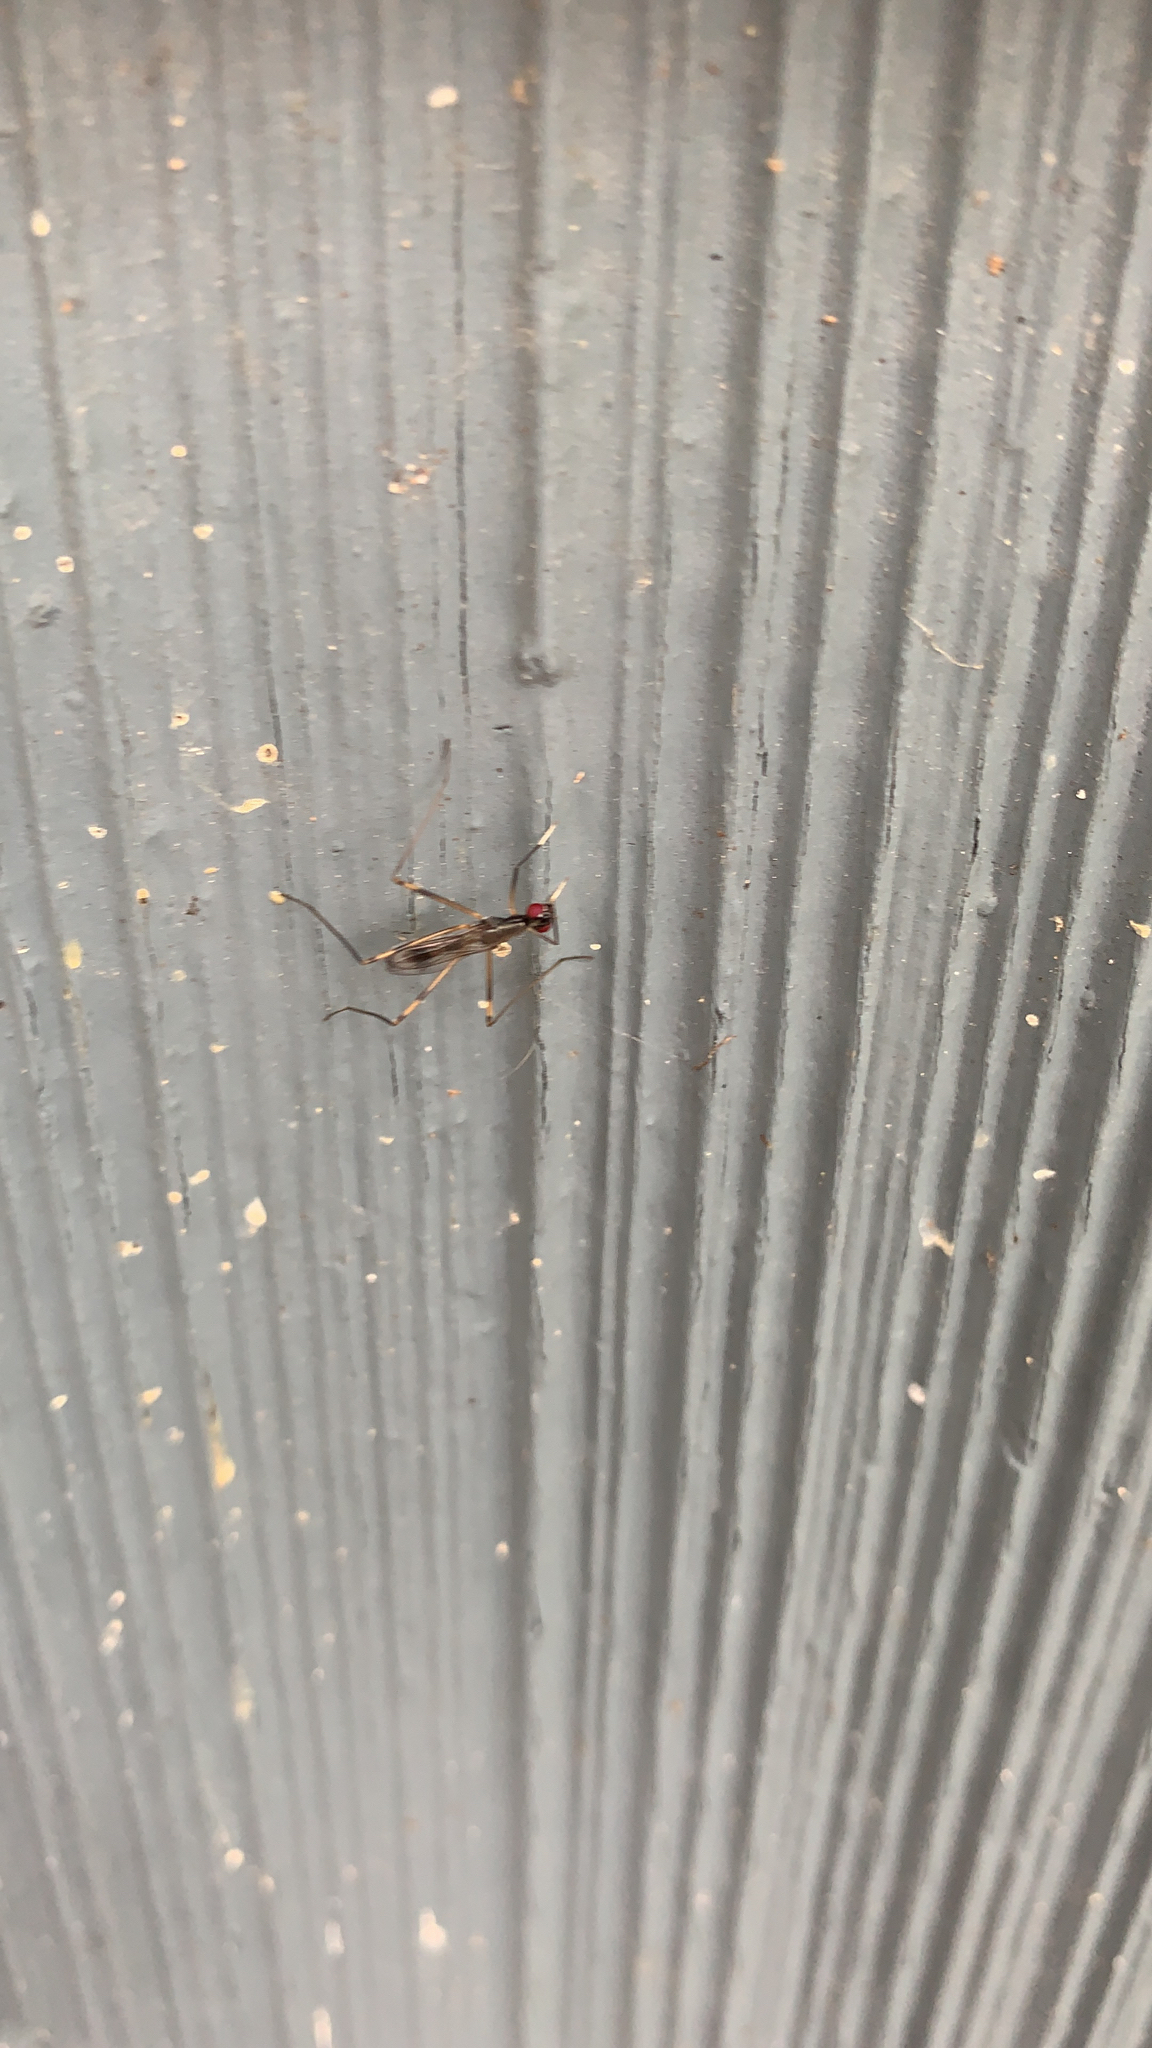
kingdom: Animalia
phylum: Arthropoda
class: Insecta
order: Diptera
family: Micropezidae
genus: Rainieria
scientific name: Rainieria antennaepes
